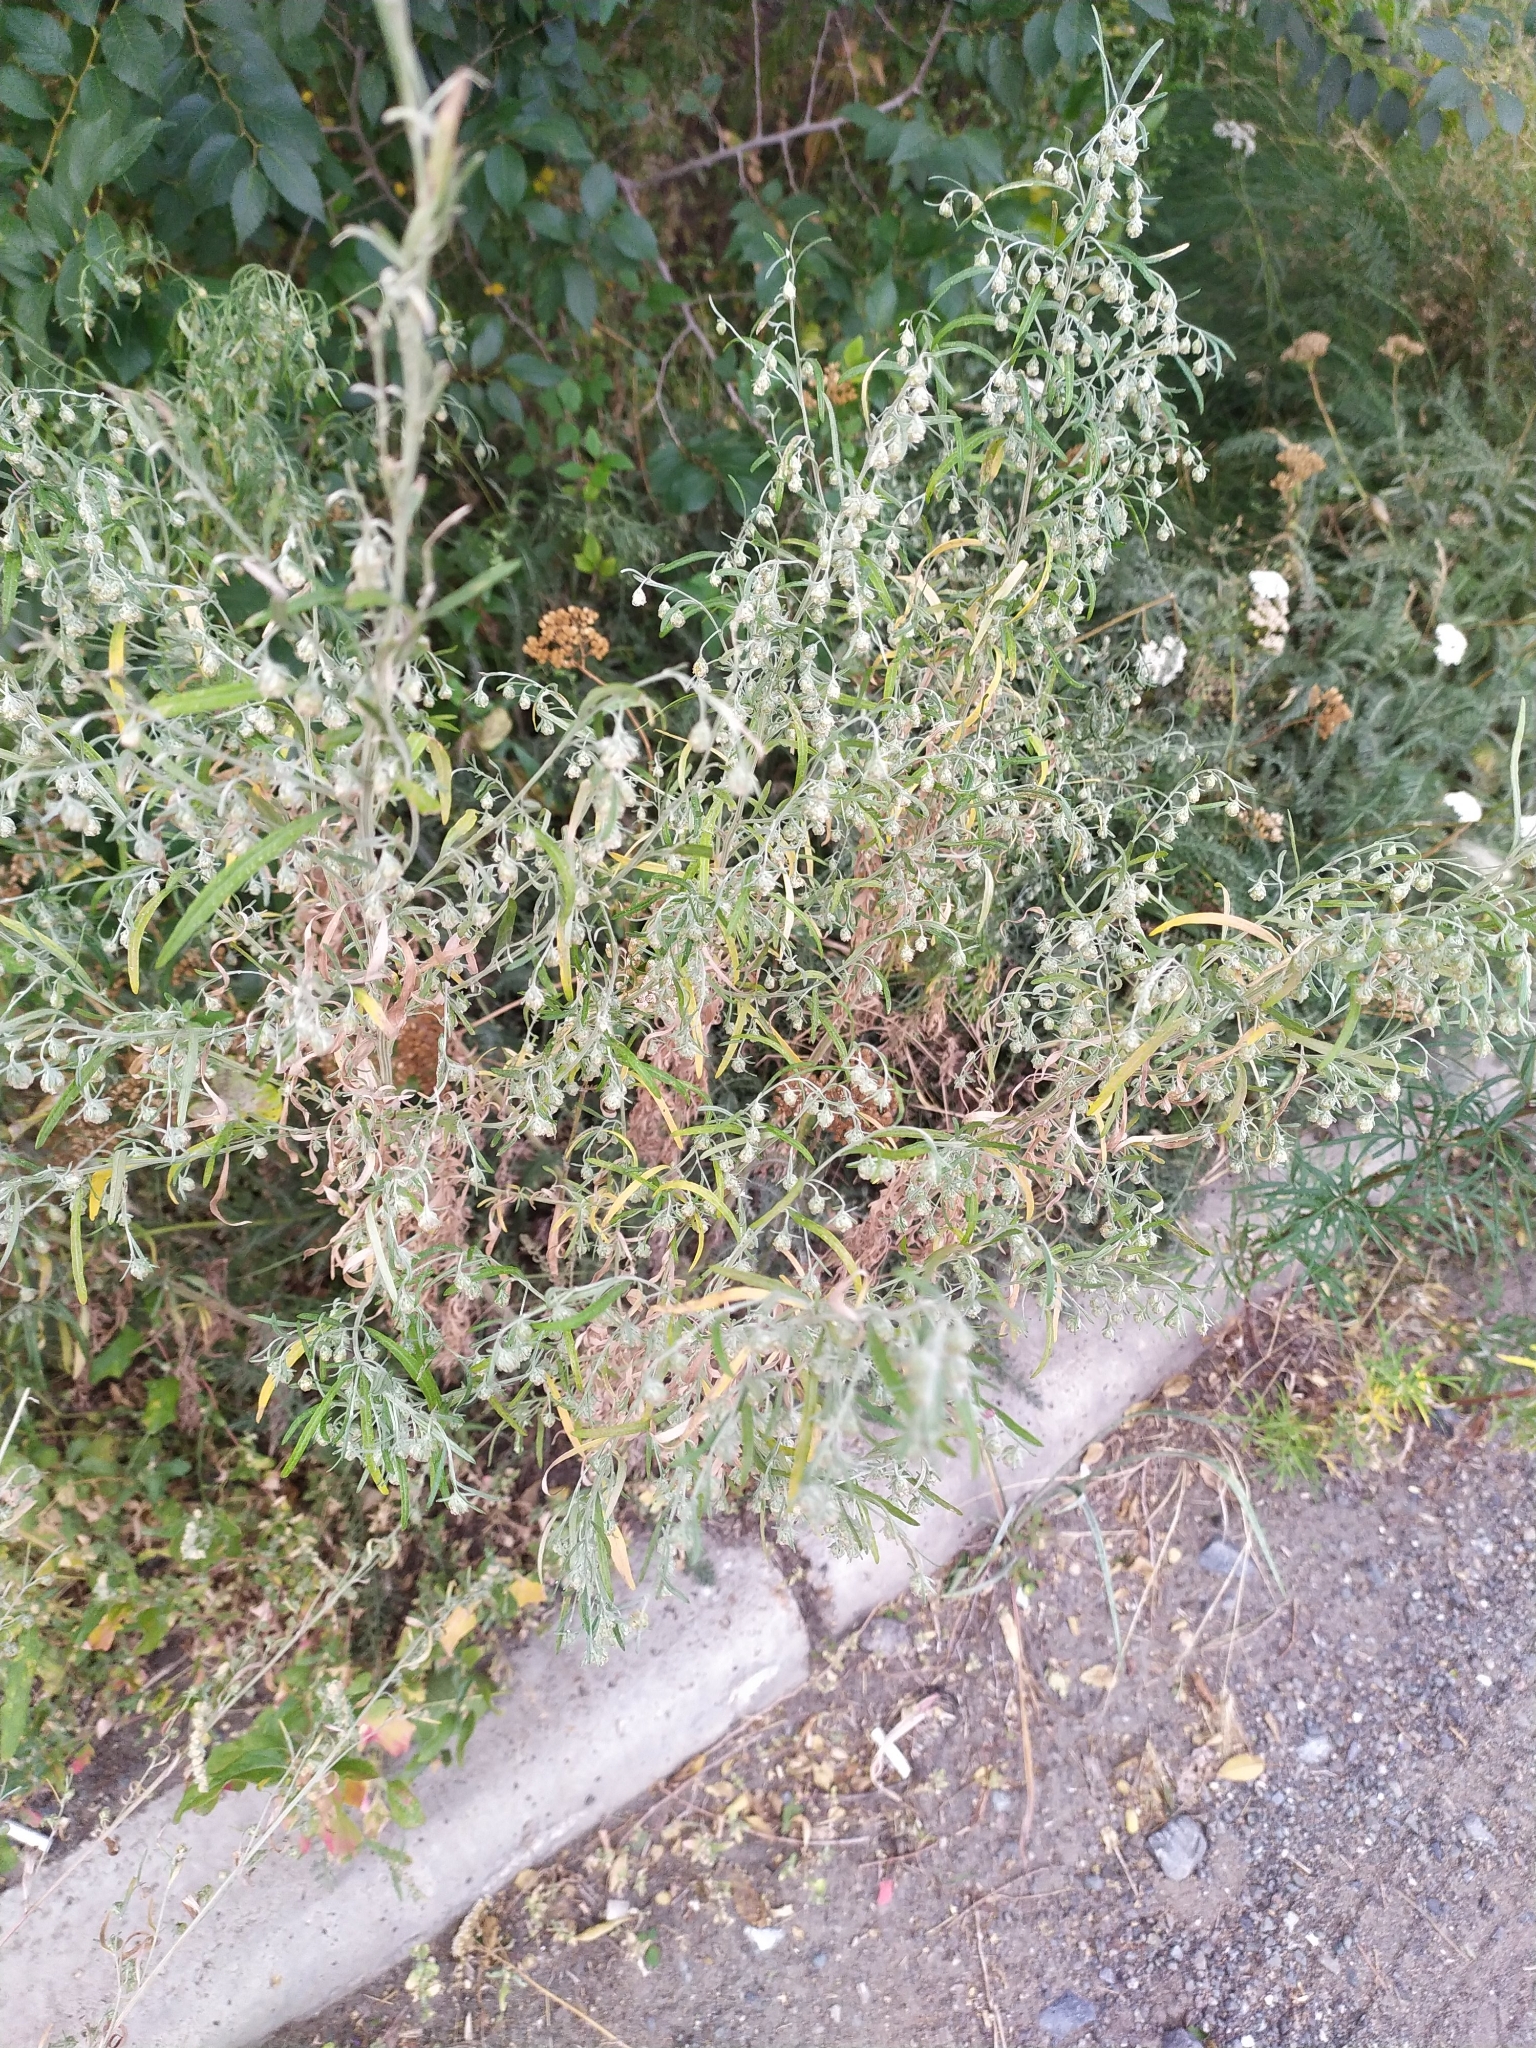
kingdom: Plantae
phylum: Tracheophyta
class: Magnoliopsida
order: Asterales
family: Asteraceae
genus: Artemisia
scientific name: Artemisia sieversiana
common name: Sieversian wormwood
